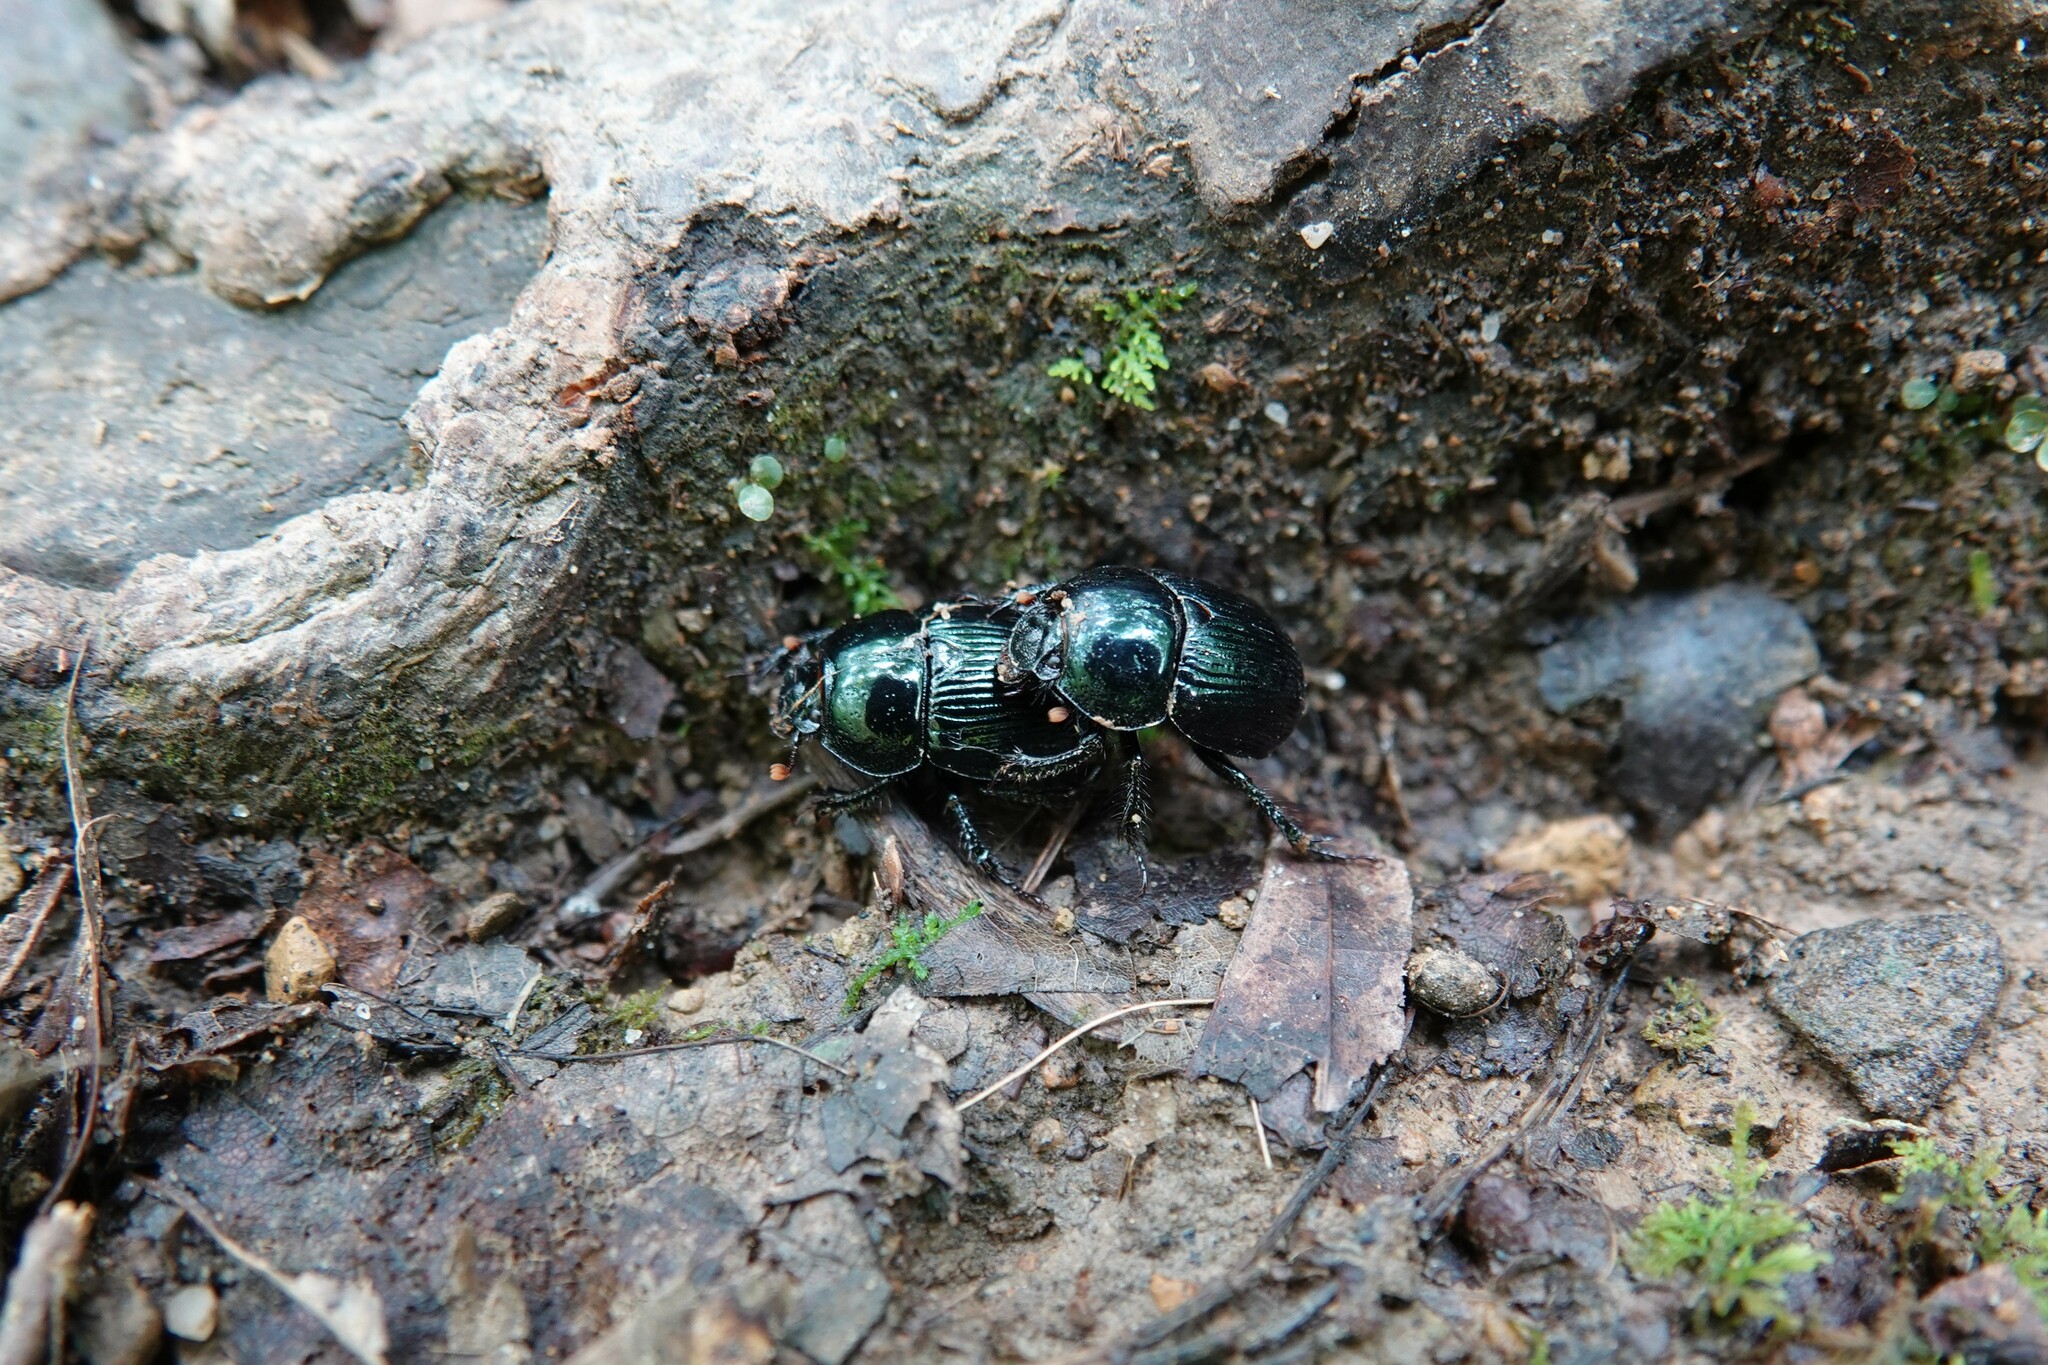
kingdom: Animalia
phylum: Arthropoda
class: Insecta
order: Coleoptera
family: Geotrupidae
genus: Anoplotrupes
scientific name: Anoplotrupes balyi
